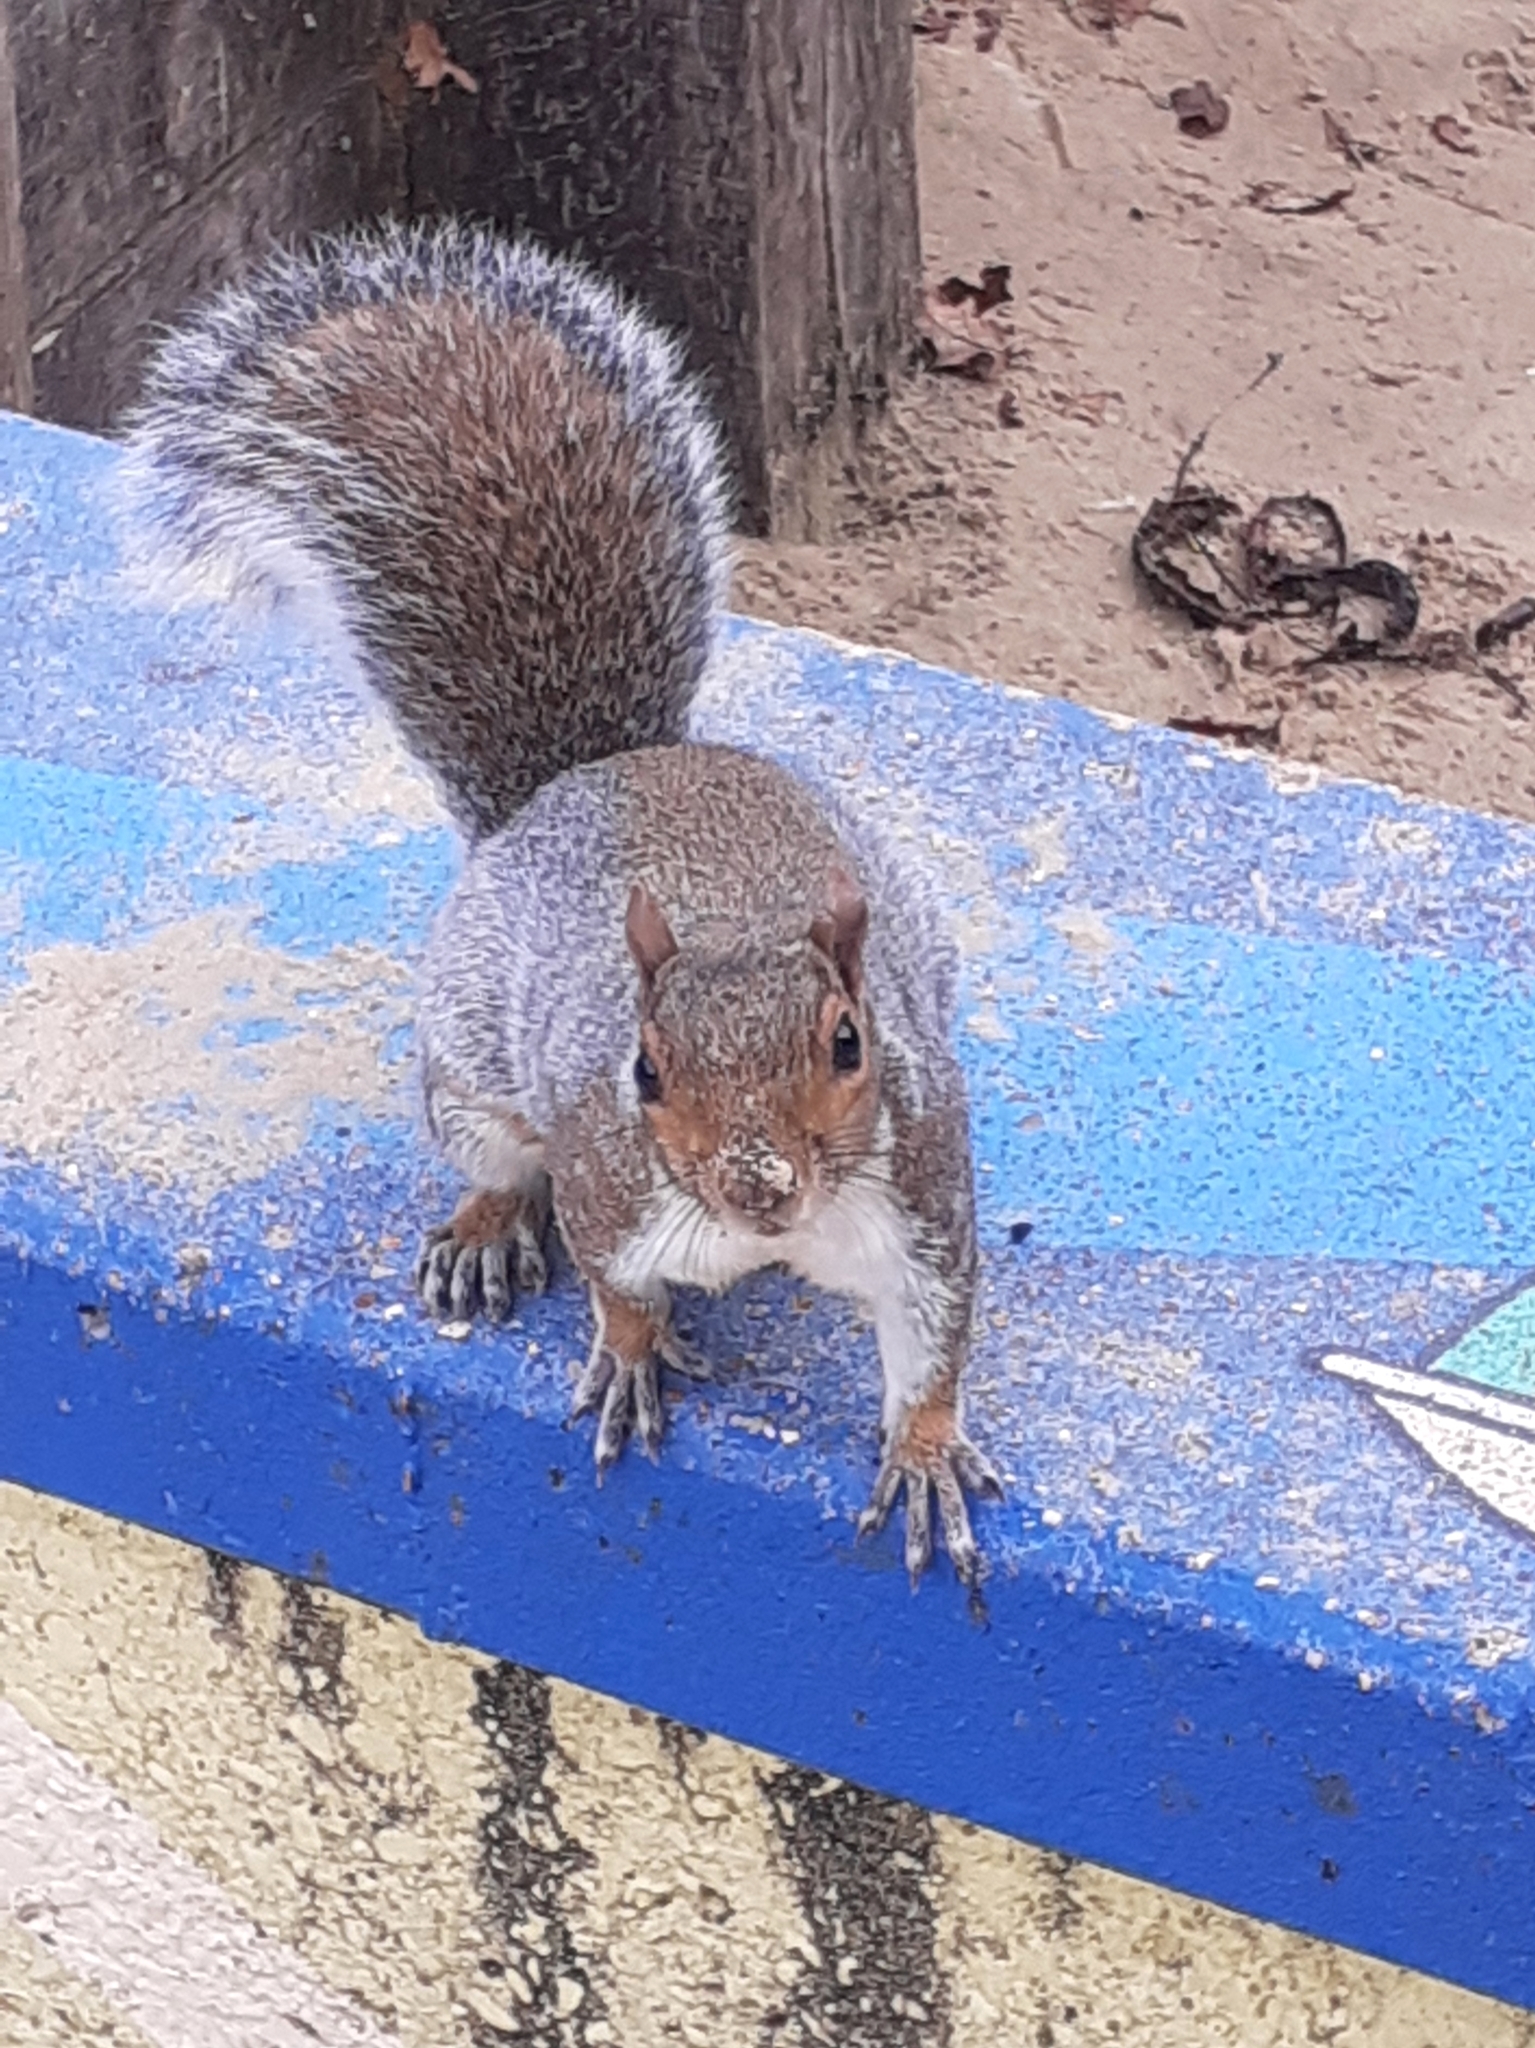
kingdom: Animalia
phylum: Chordata
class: Mammalia
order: Rodentia
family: Sciuridae
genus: Sciurus
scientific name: Sciurus carolinensis
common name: Eastern gray squirrel
